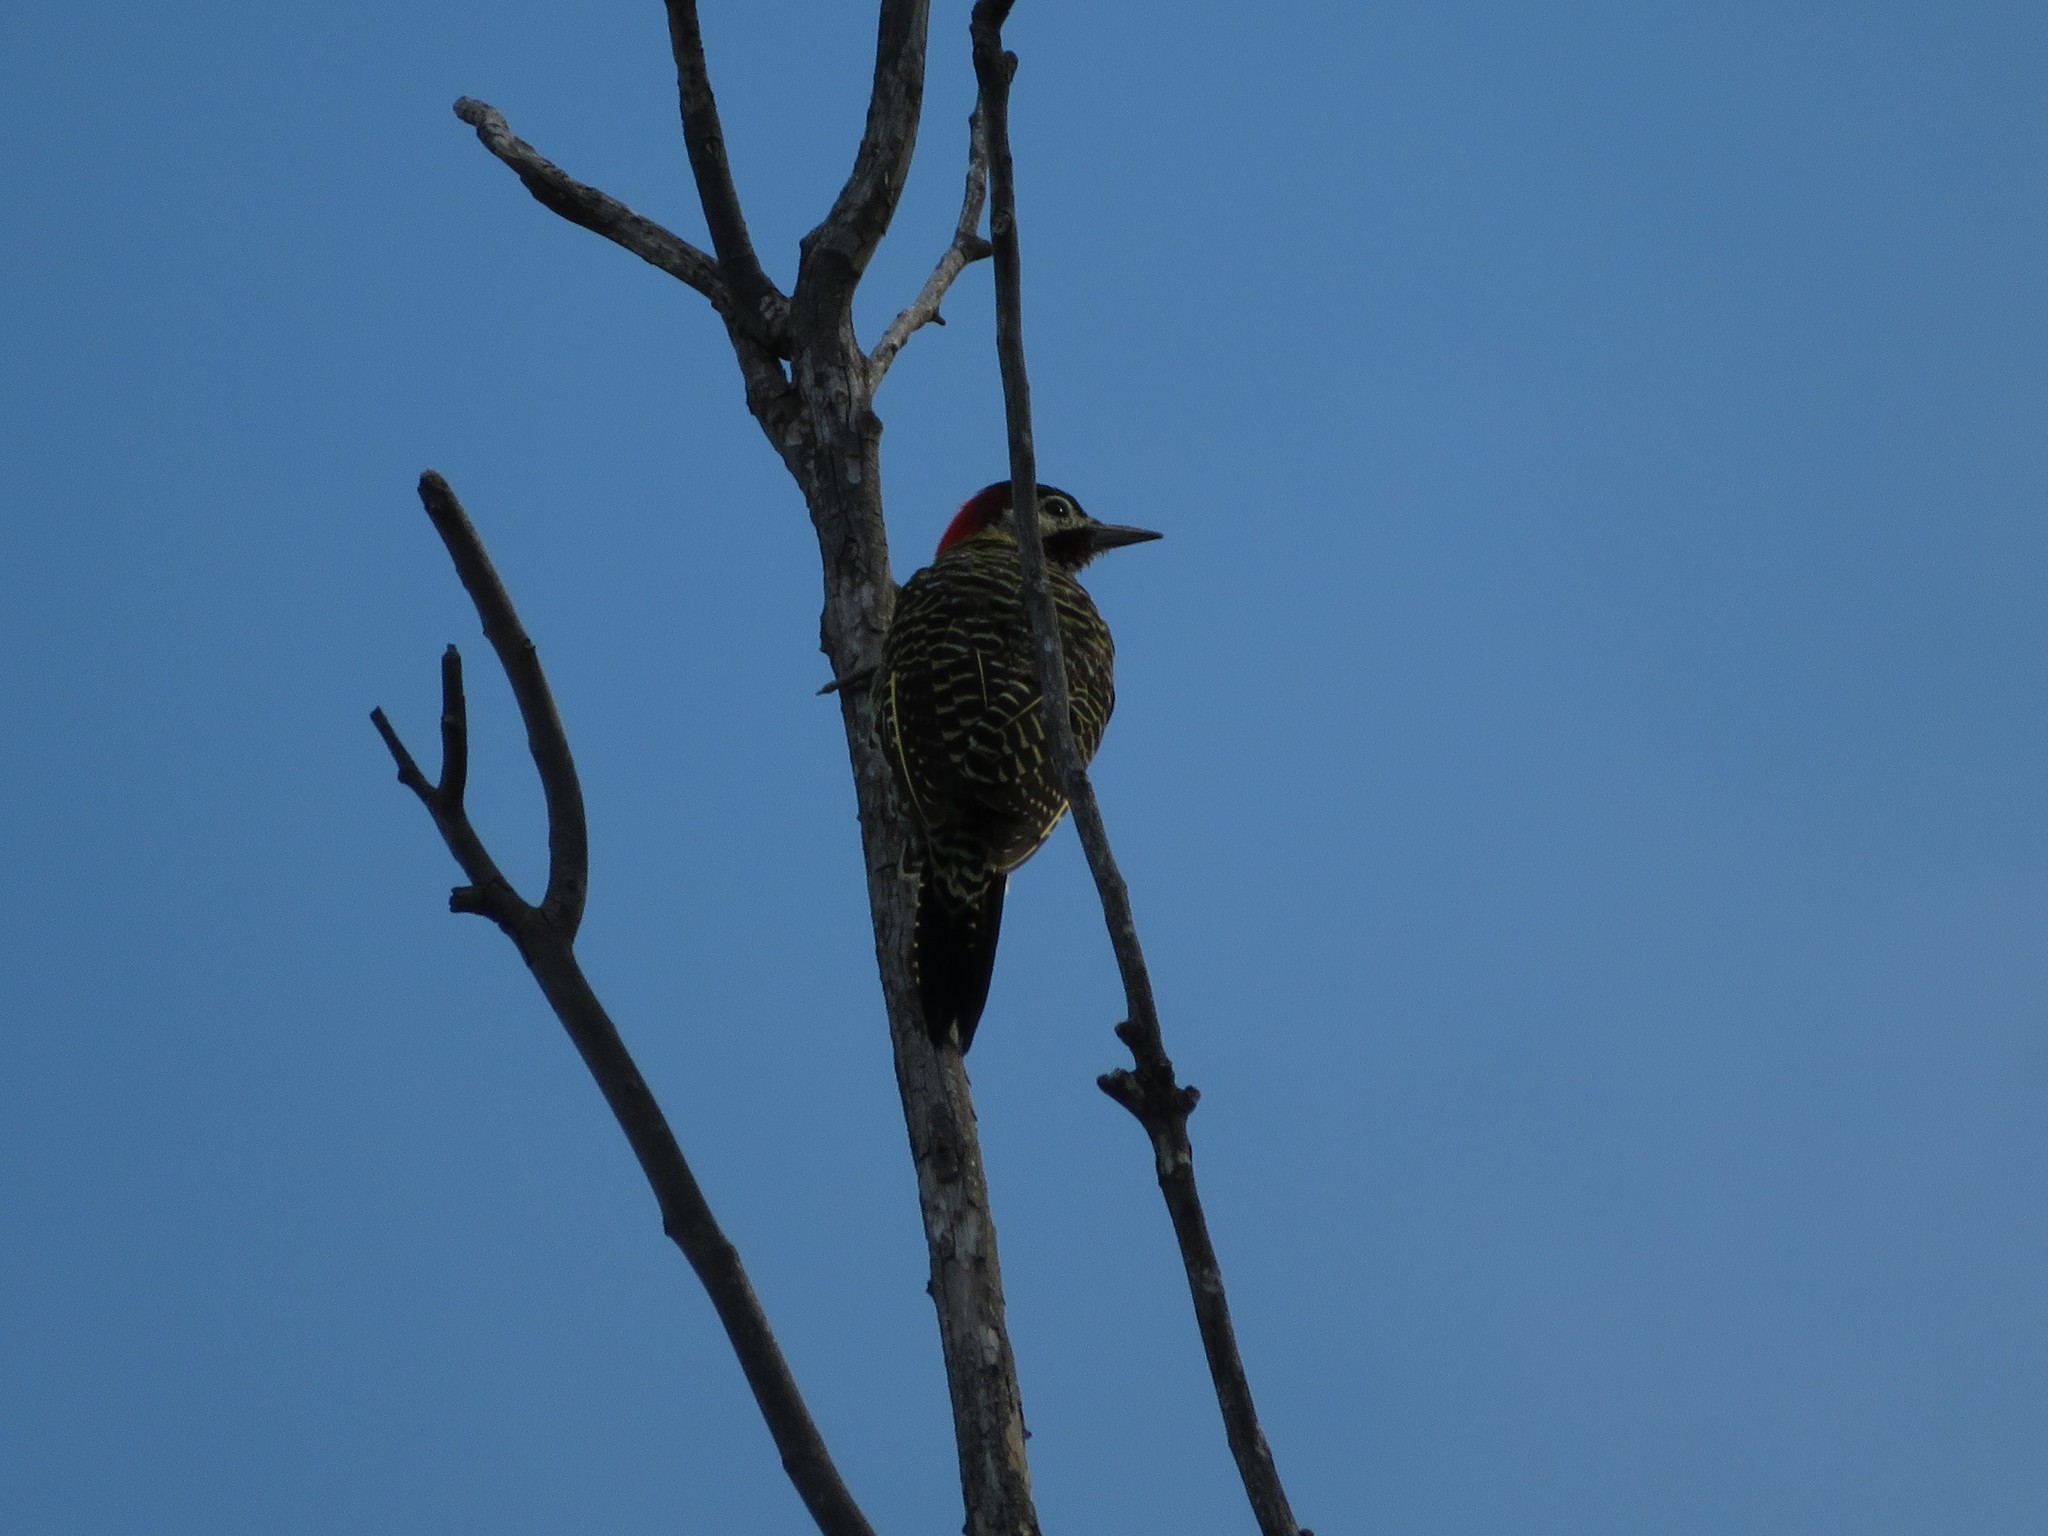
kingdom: Animalia
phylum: Chordata
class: Aves
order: Piciformes
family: Picidae
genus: Colaptes
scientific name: Colaptes melanochloros
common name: Green-barred woodpecker
